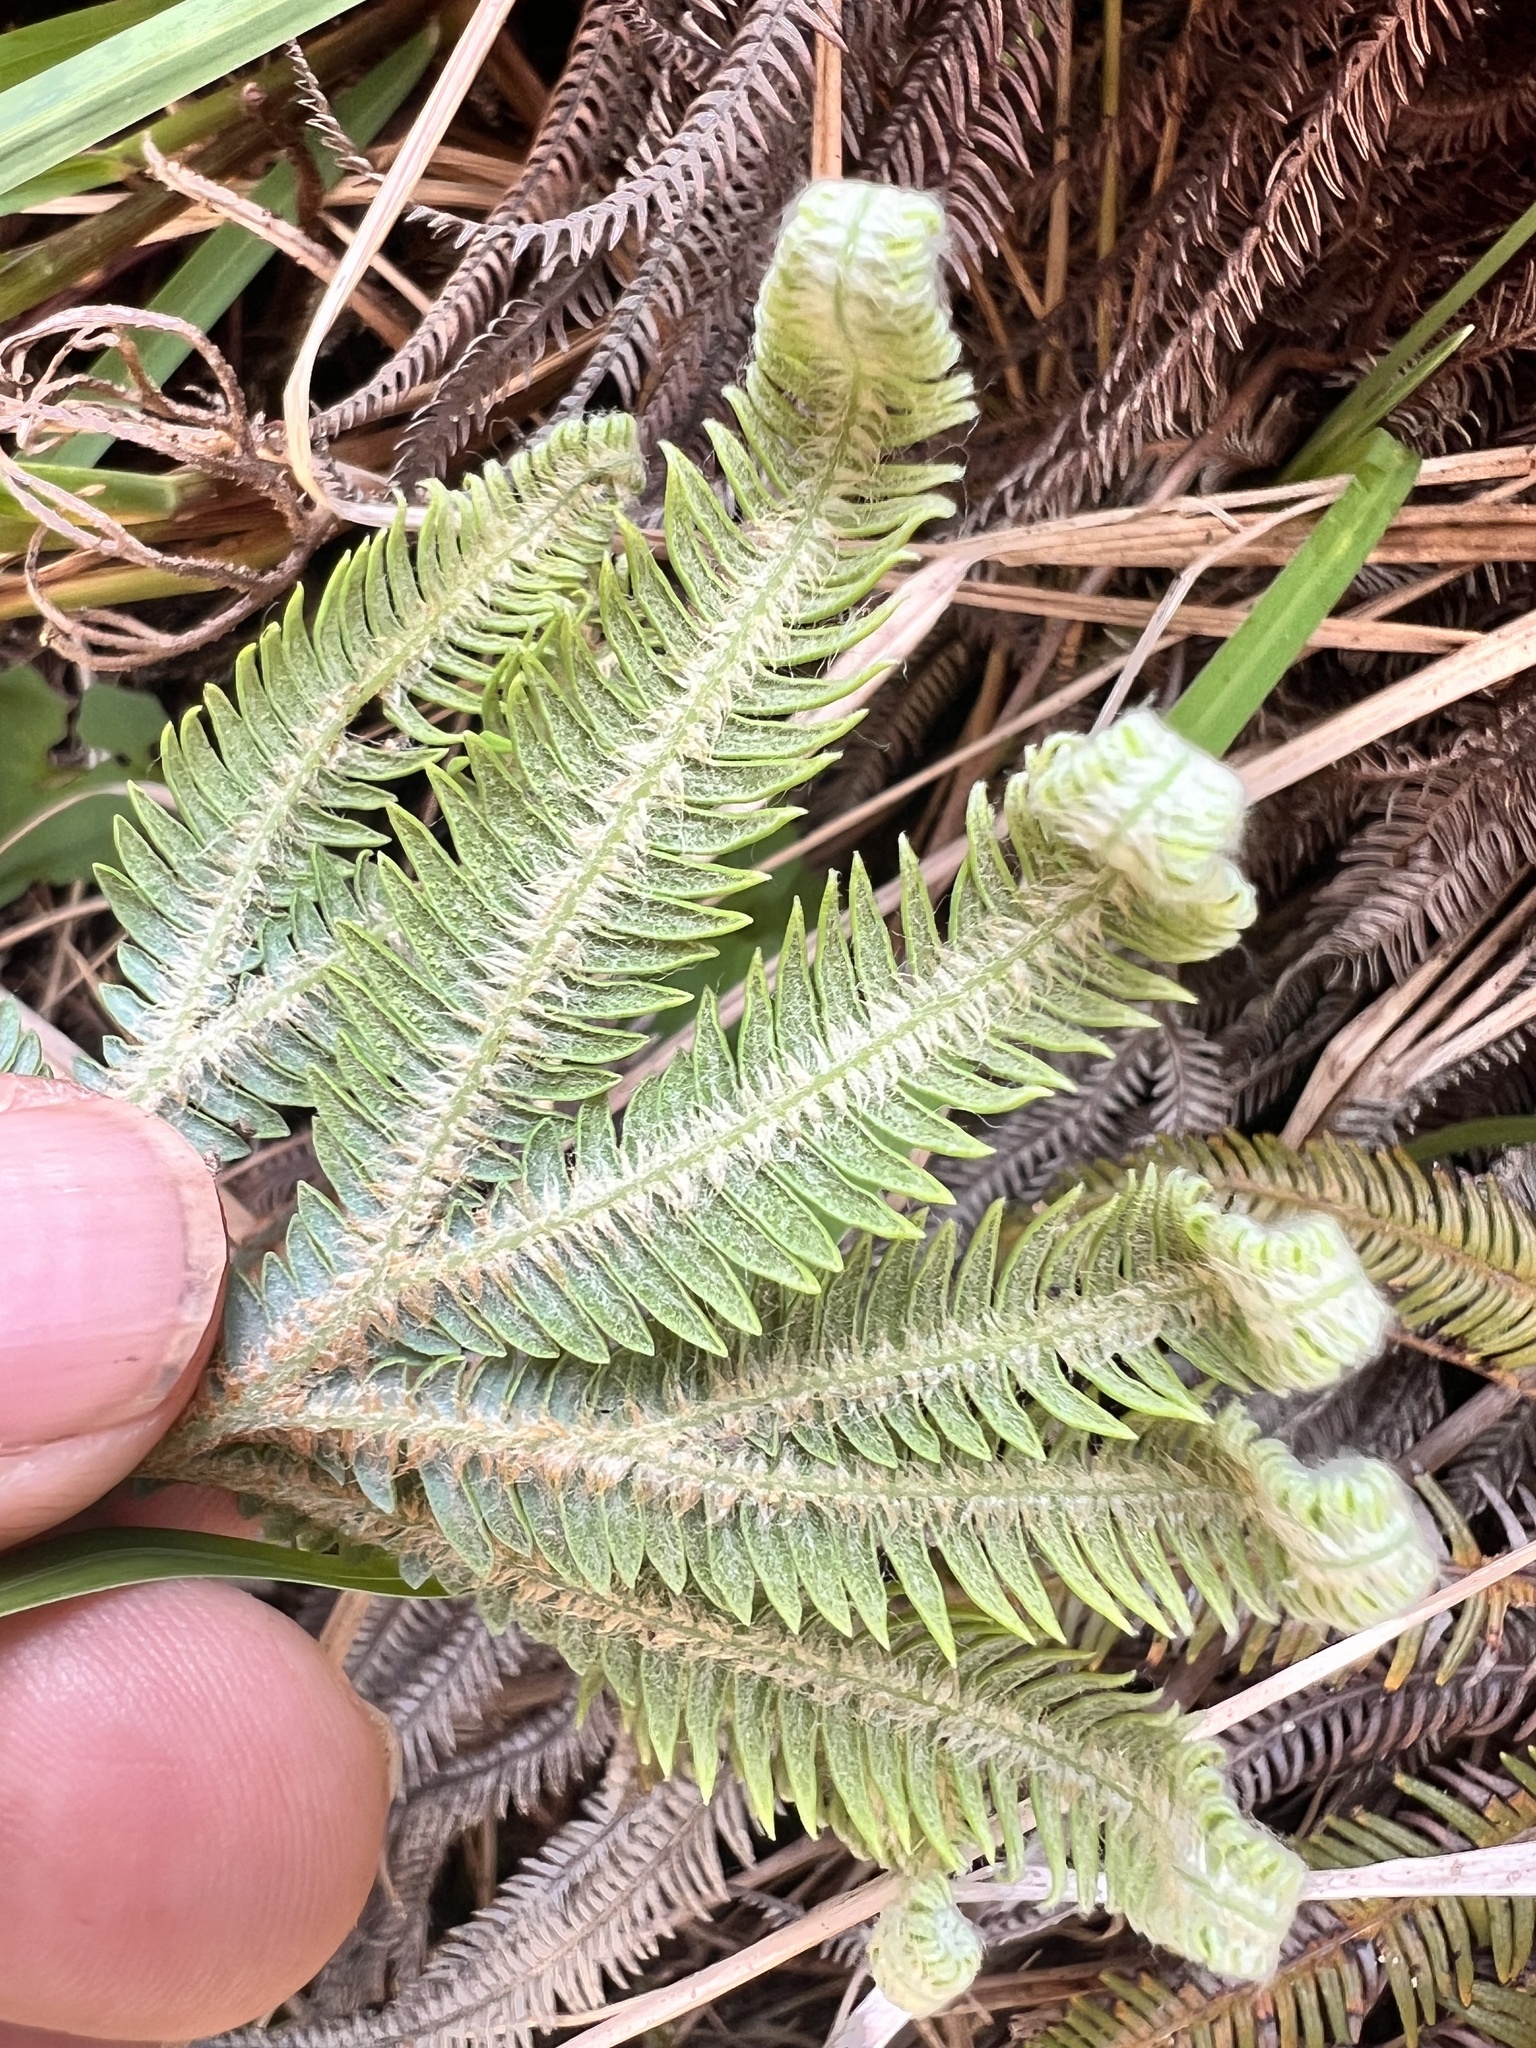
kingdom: Plantae
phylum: Tracheophyta
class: Polypodiopsida
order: Gleicheniales
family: Gleicheniaceae
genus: Sticherus
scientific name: Sticherus cunninghamii
